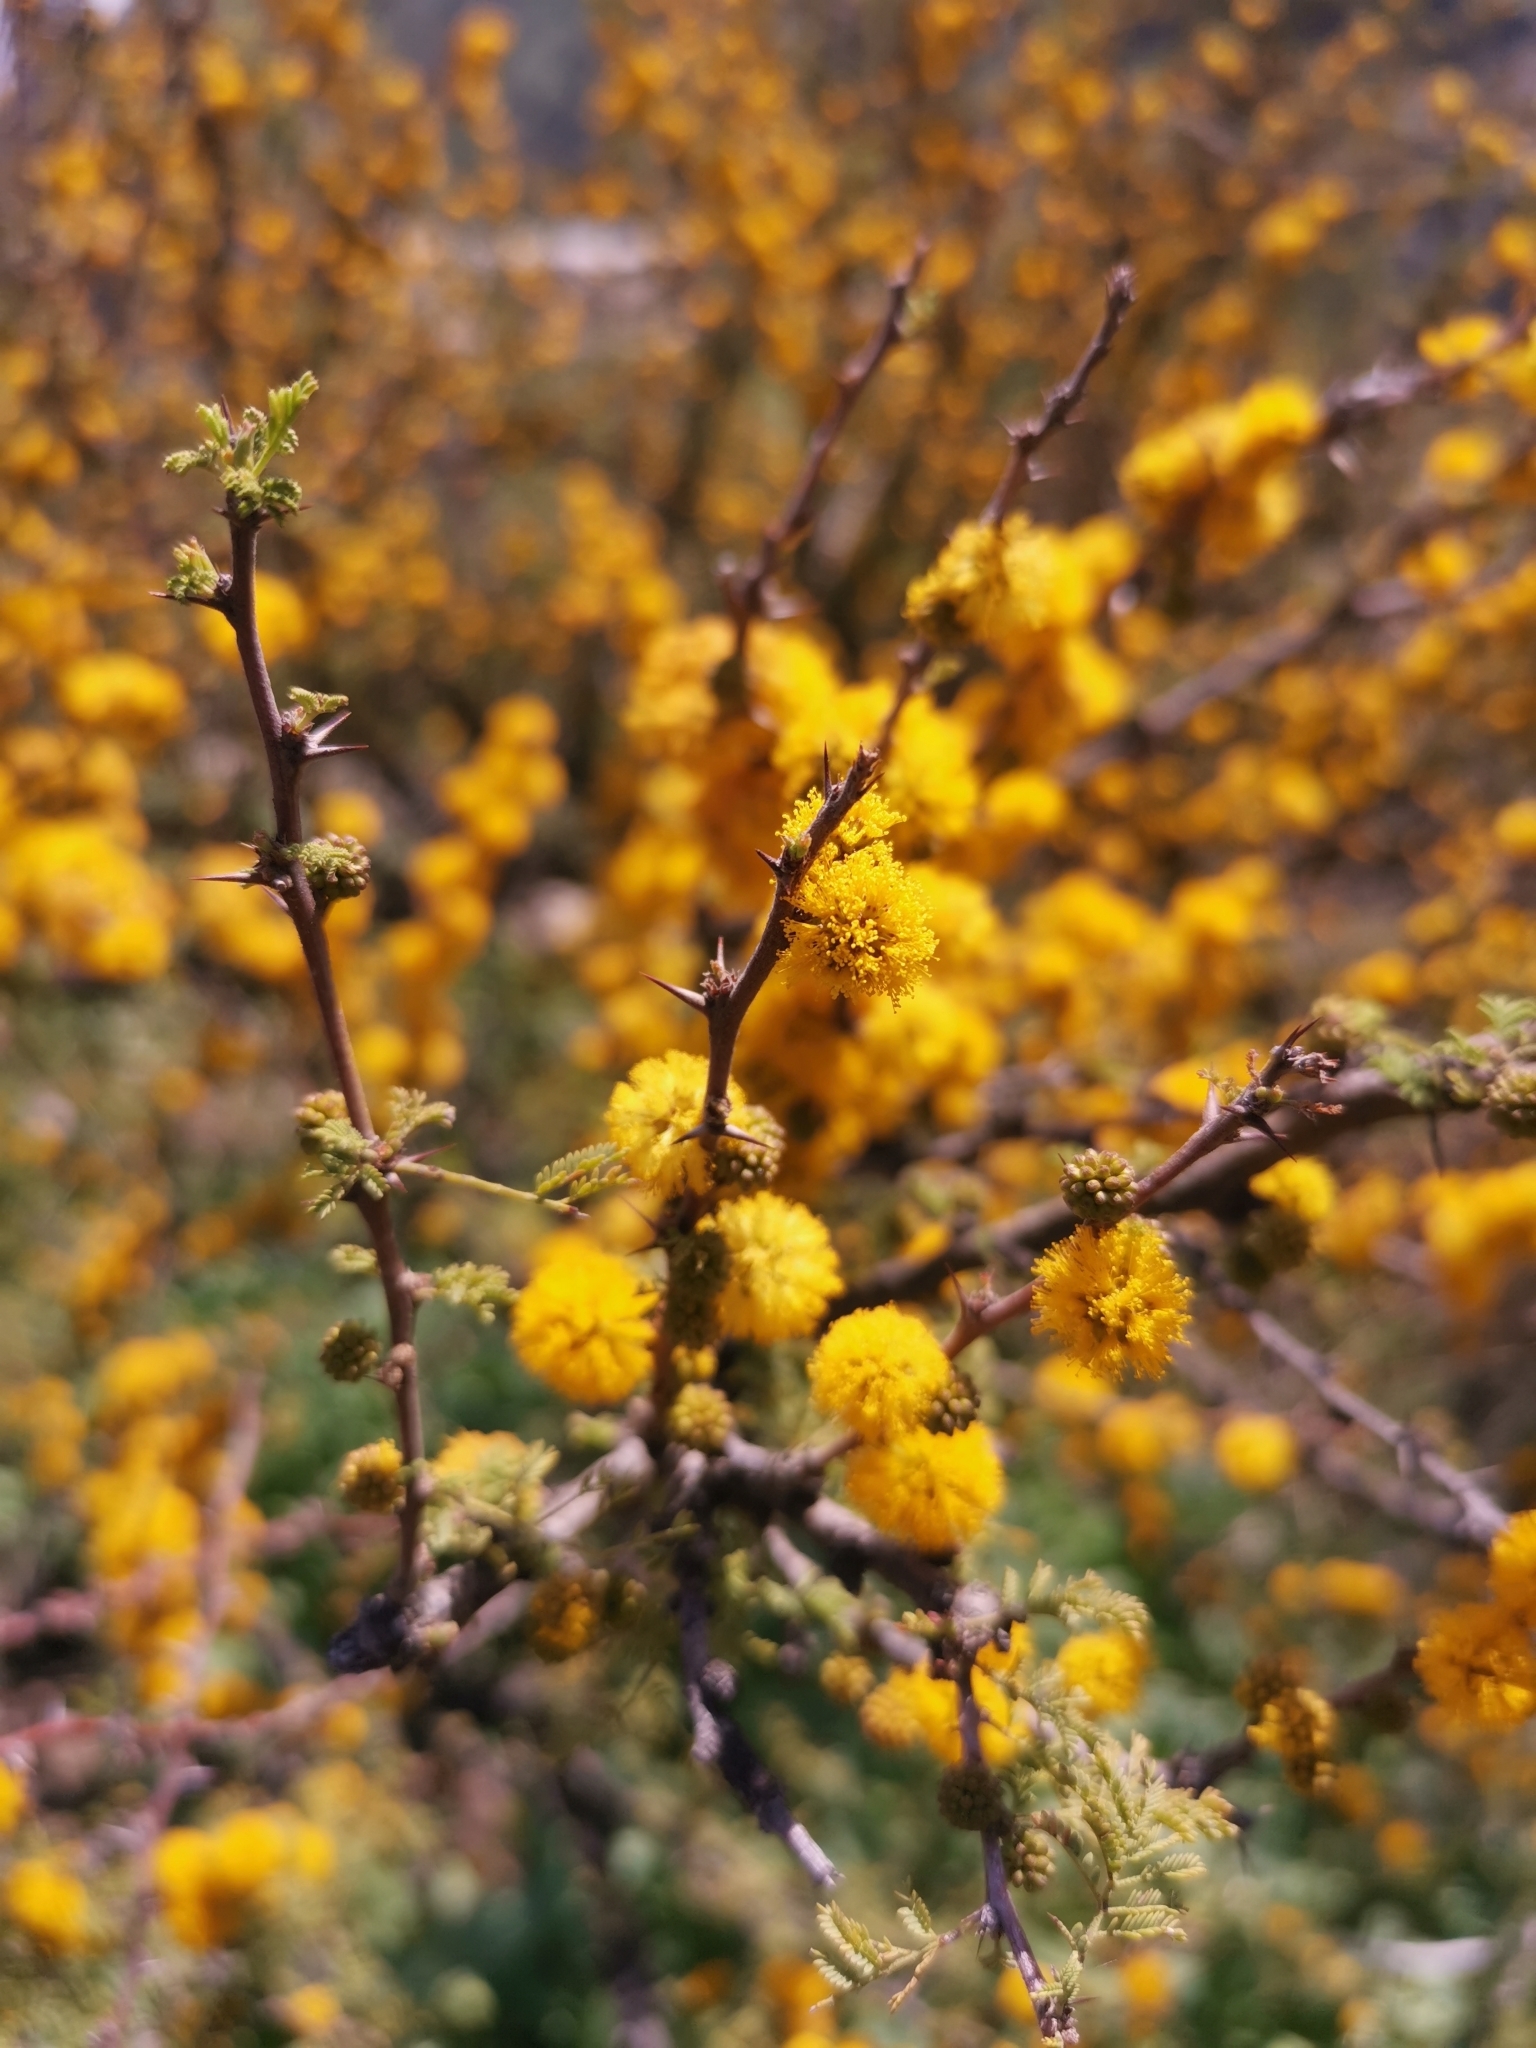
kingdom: Plantae
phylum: Tracheophyta
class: Magnoliopsida
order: Fabales
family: Fabaceae
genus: Vachellia
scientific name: Vachellia caven
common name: Roman cassie
